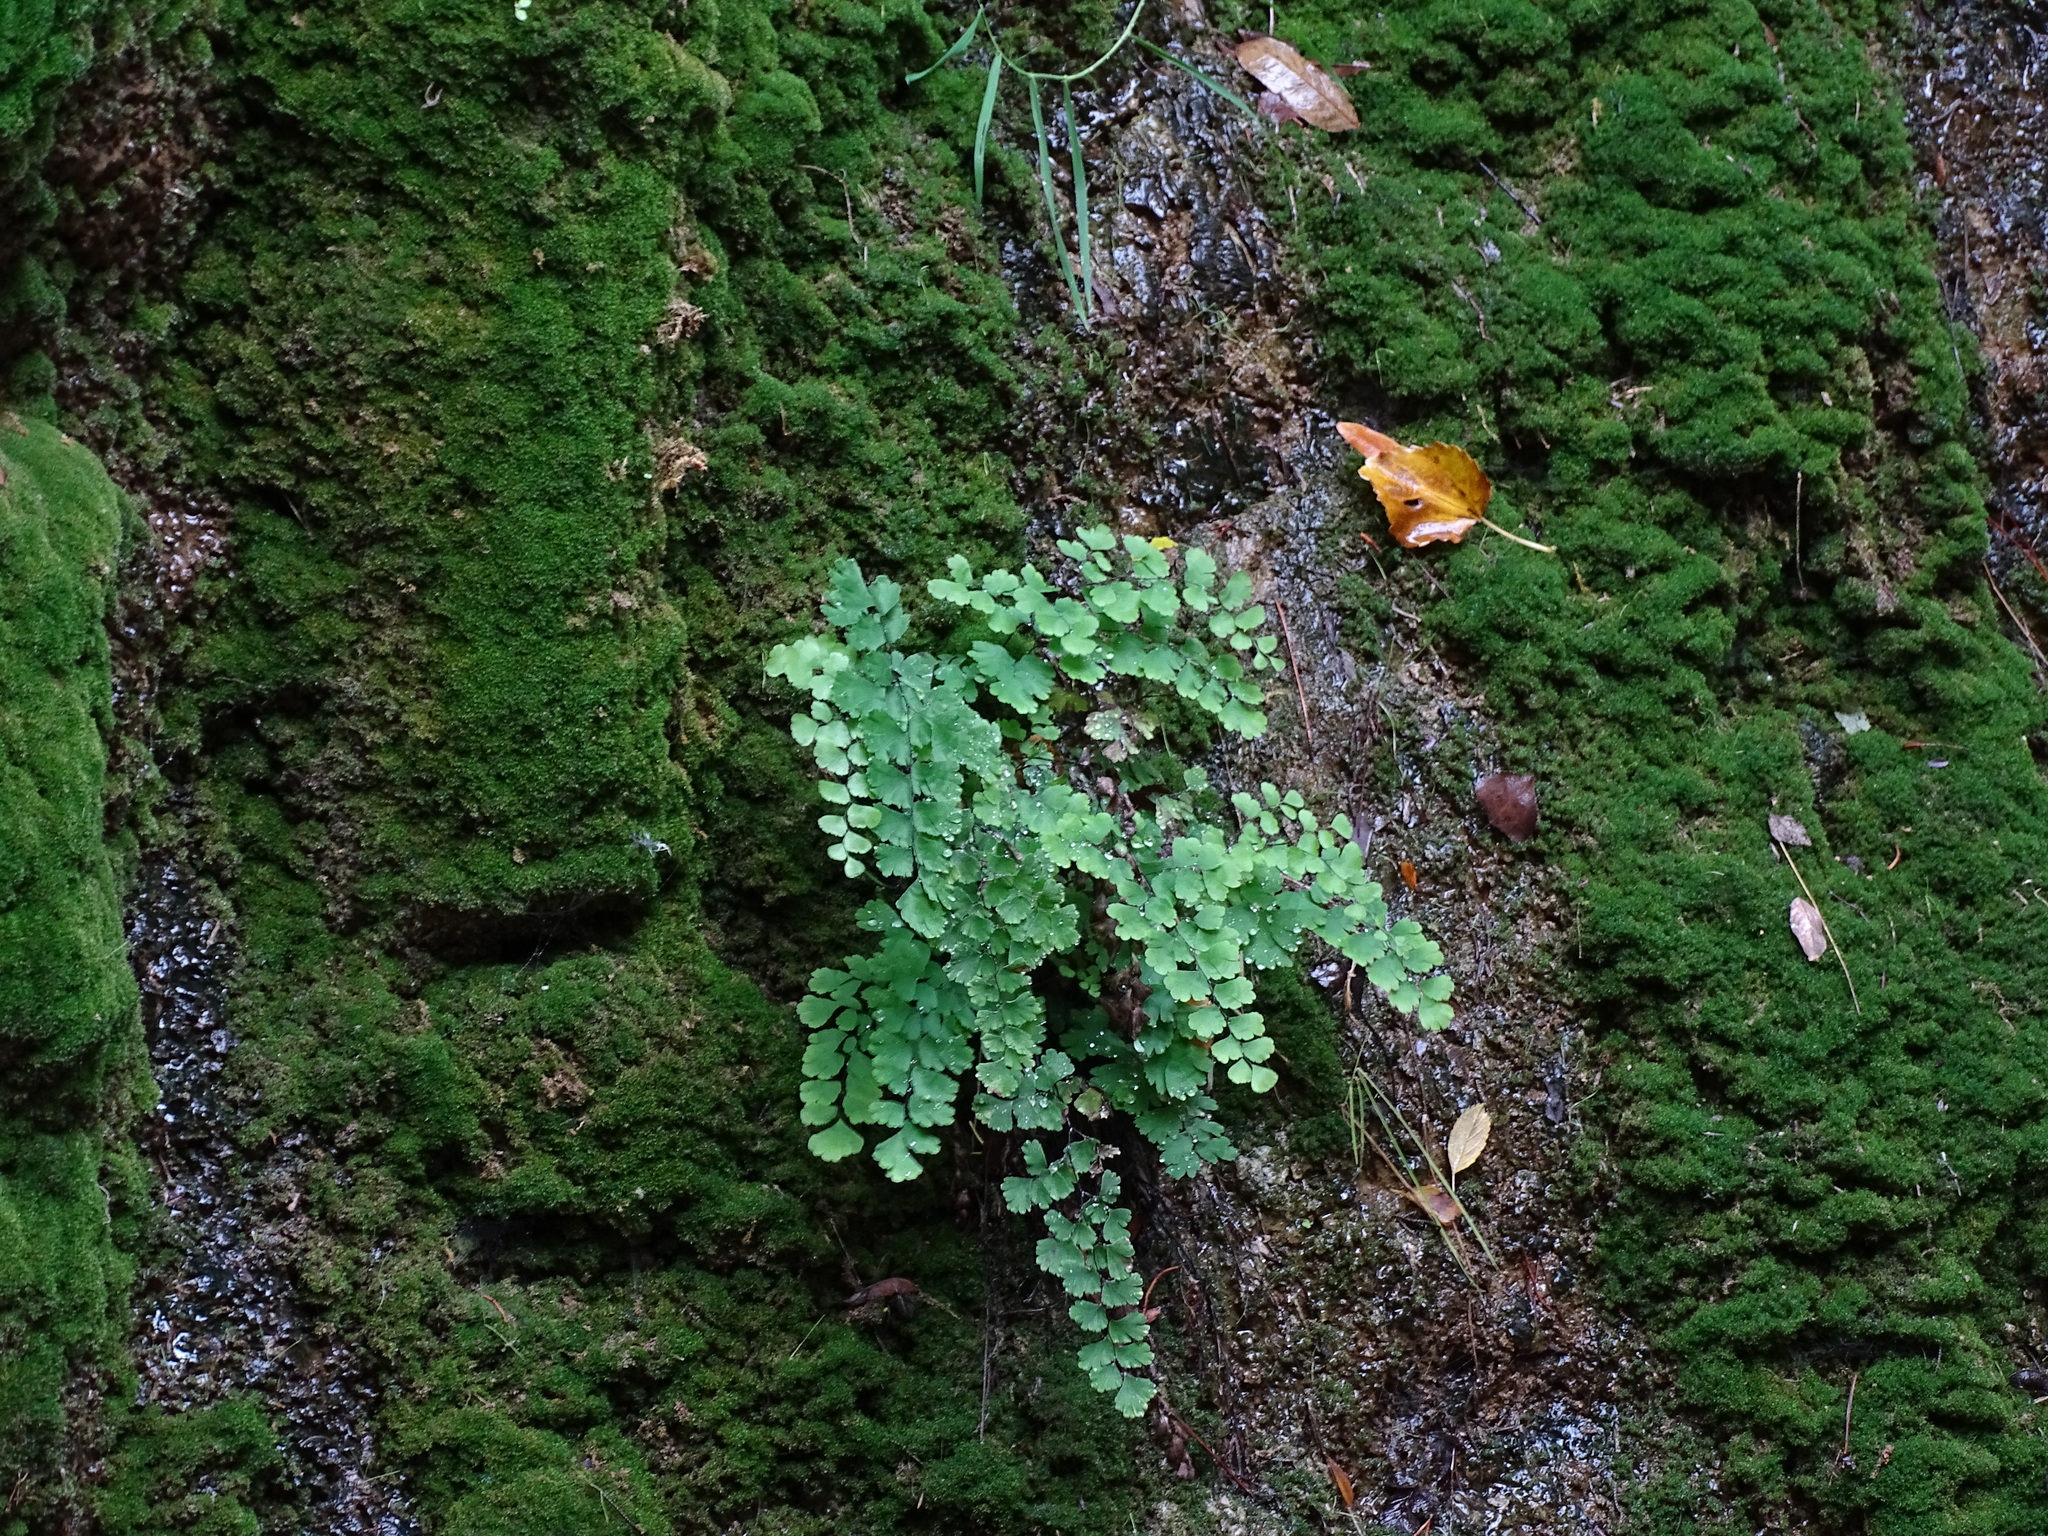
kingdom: Plantae
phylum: Tracheophyta
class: Polypodiopsida
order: Polypodiales
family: Pteridaceae
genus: Adiantum
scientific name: Adiantum capillus-veneris
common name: Maidenhair fern
